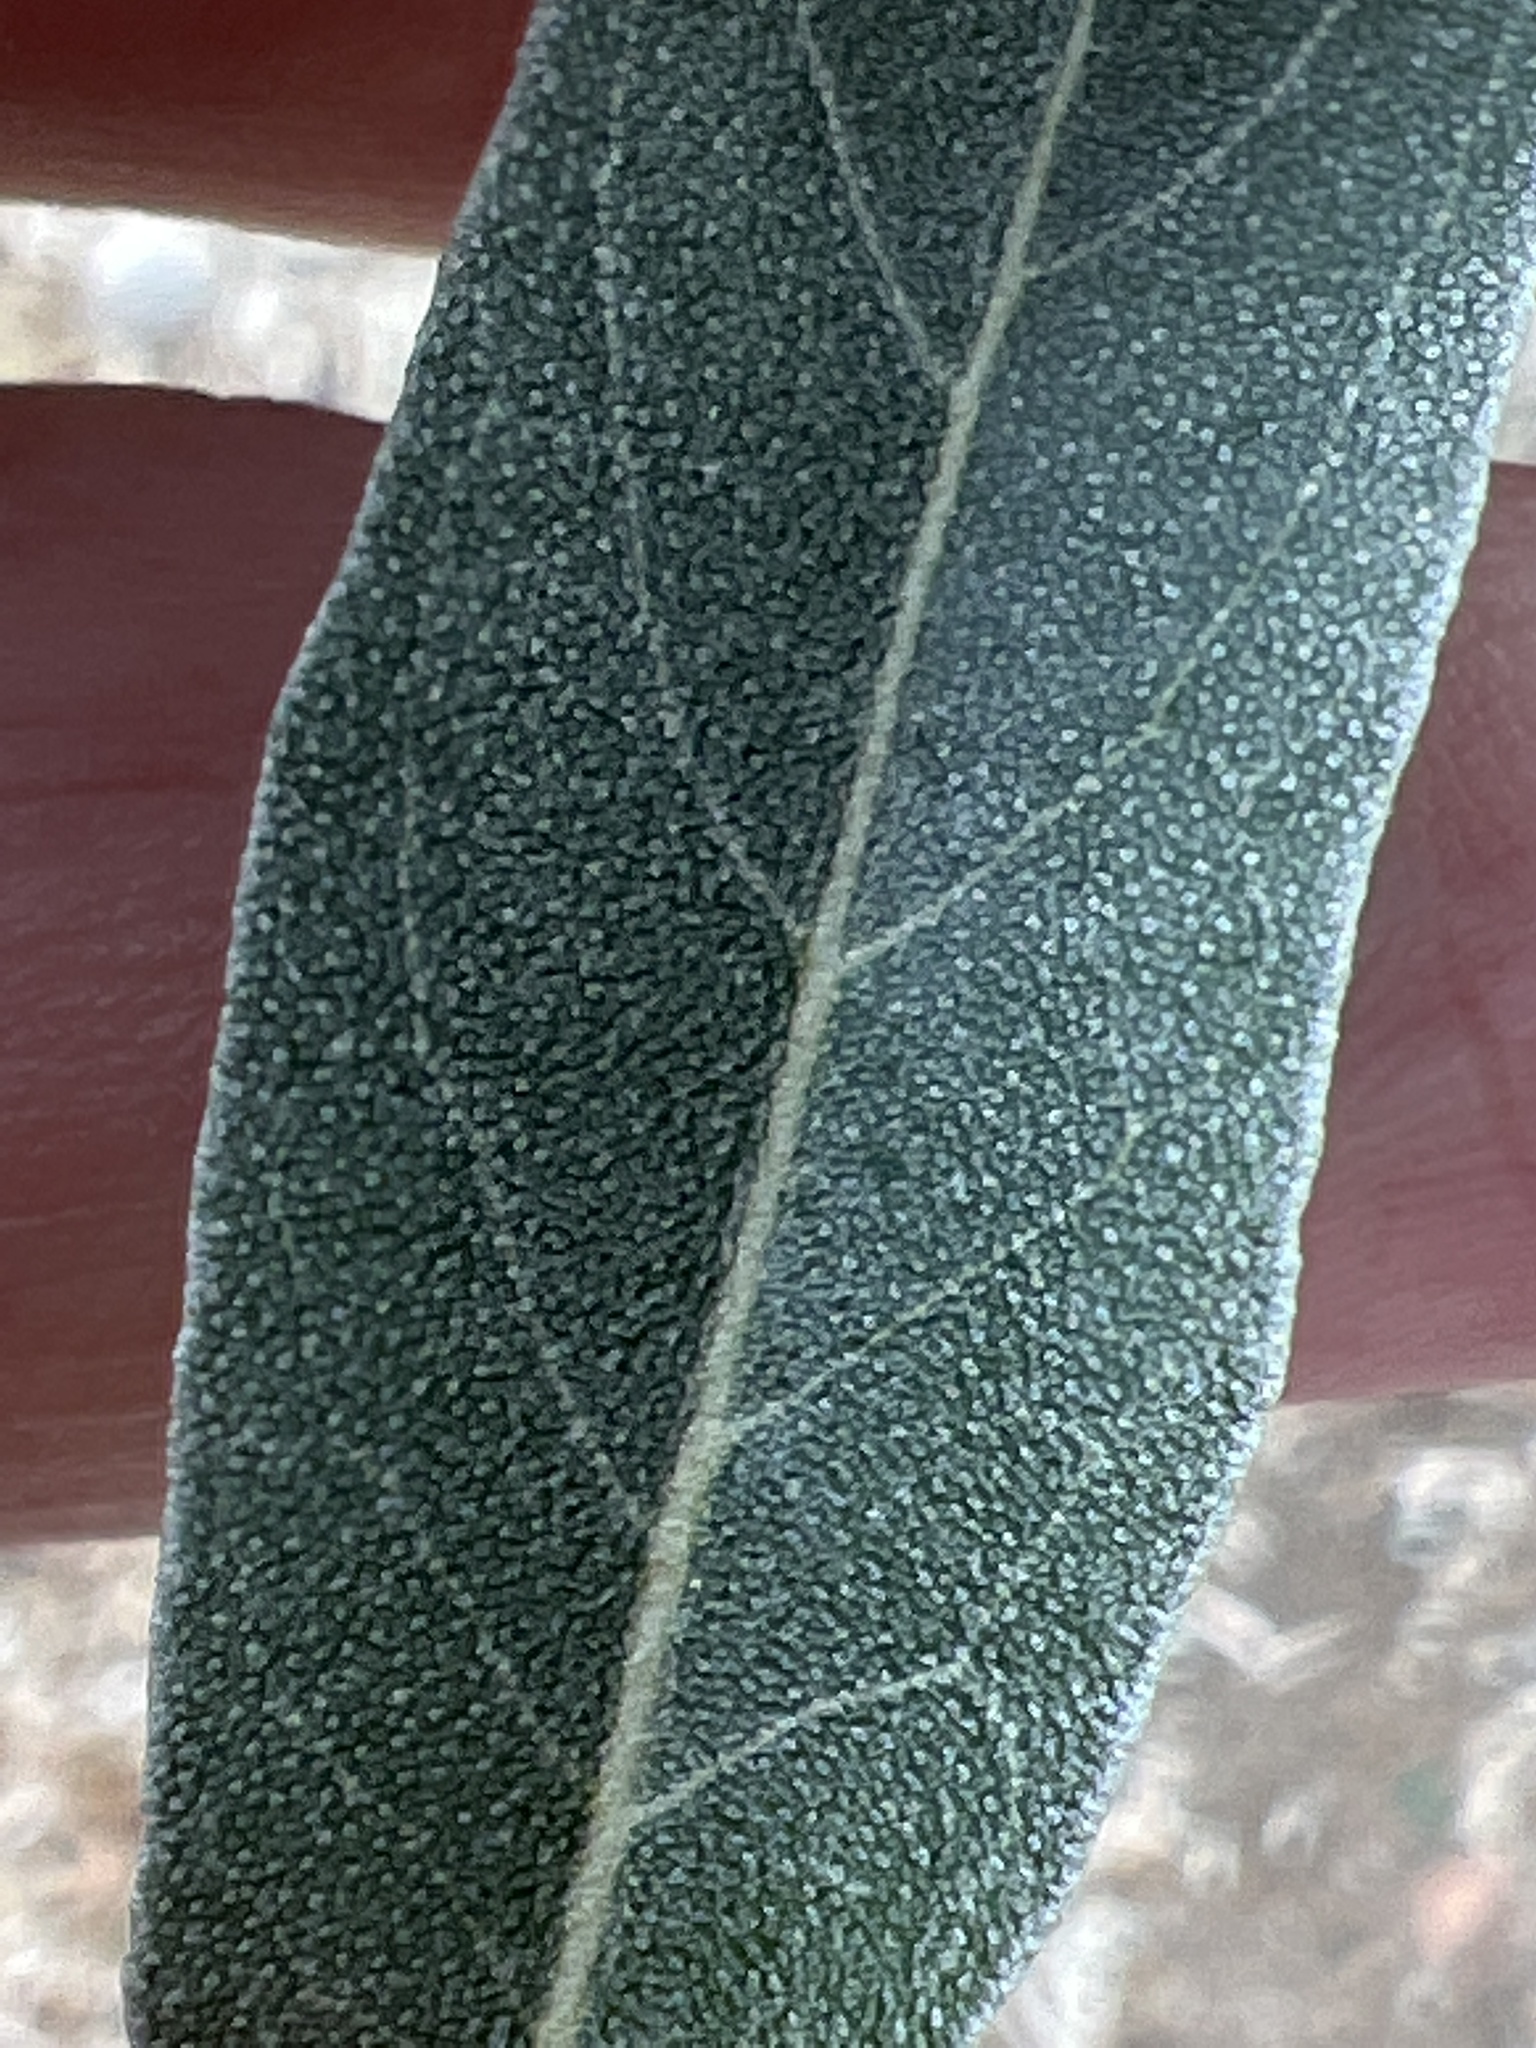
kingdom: Plantae
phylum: Tracheophyta
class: Magnoliopsida
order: Rosales
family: Elaeagnaceae
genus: Elaeagnus
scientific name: Elaeagnus angustifolia
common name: Russian olive
